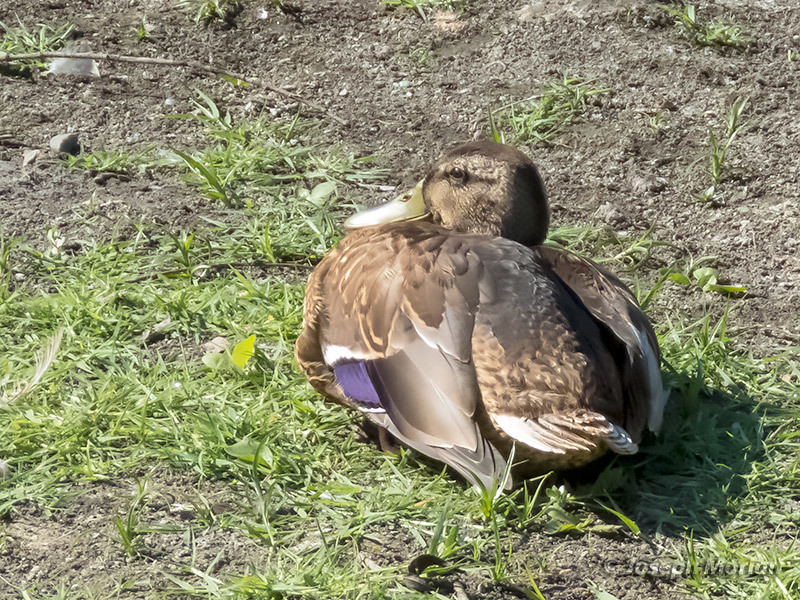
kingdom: Animalia
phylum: Chordata
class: Aves
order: Anseriformes
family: Anatidae
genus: Anas
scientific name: Anas platyrhynchos
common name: Mallard
